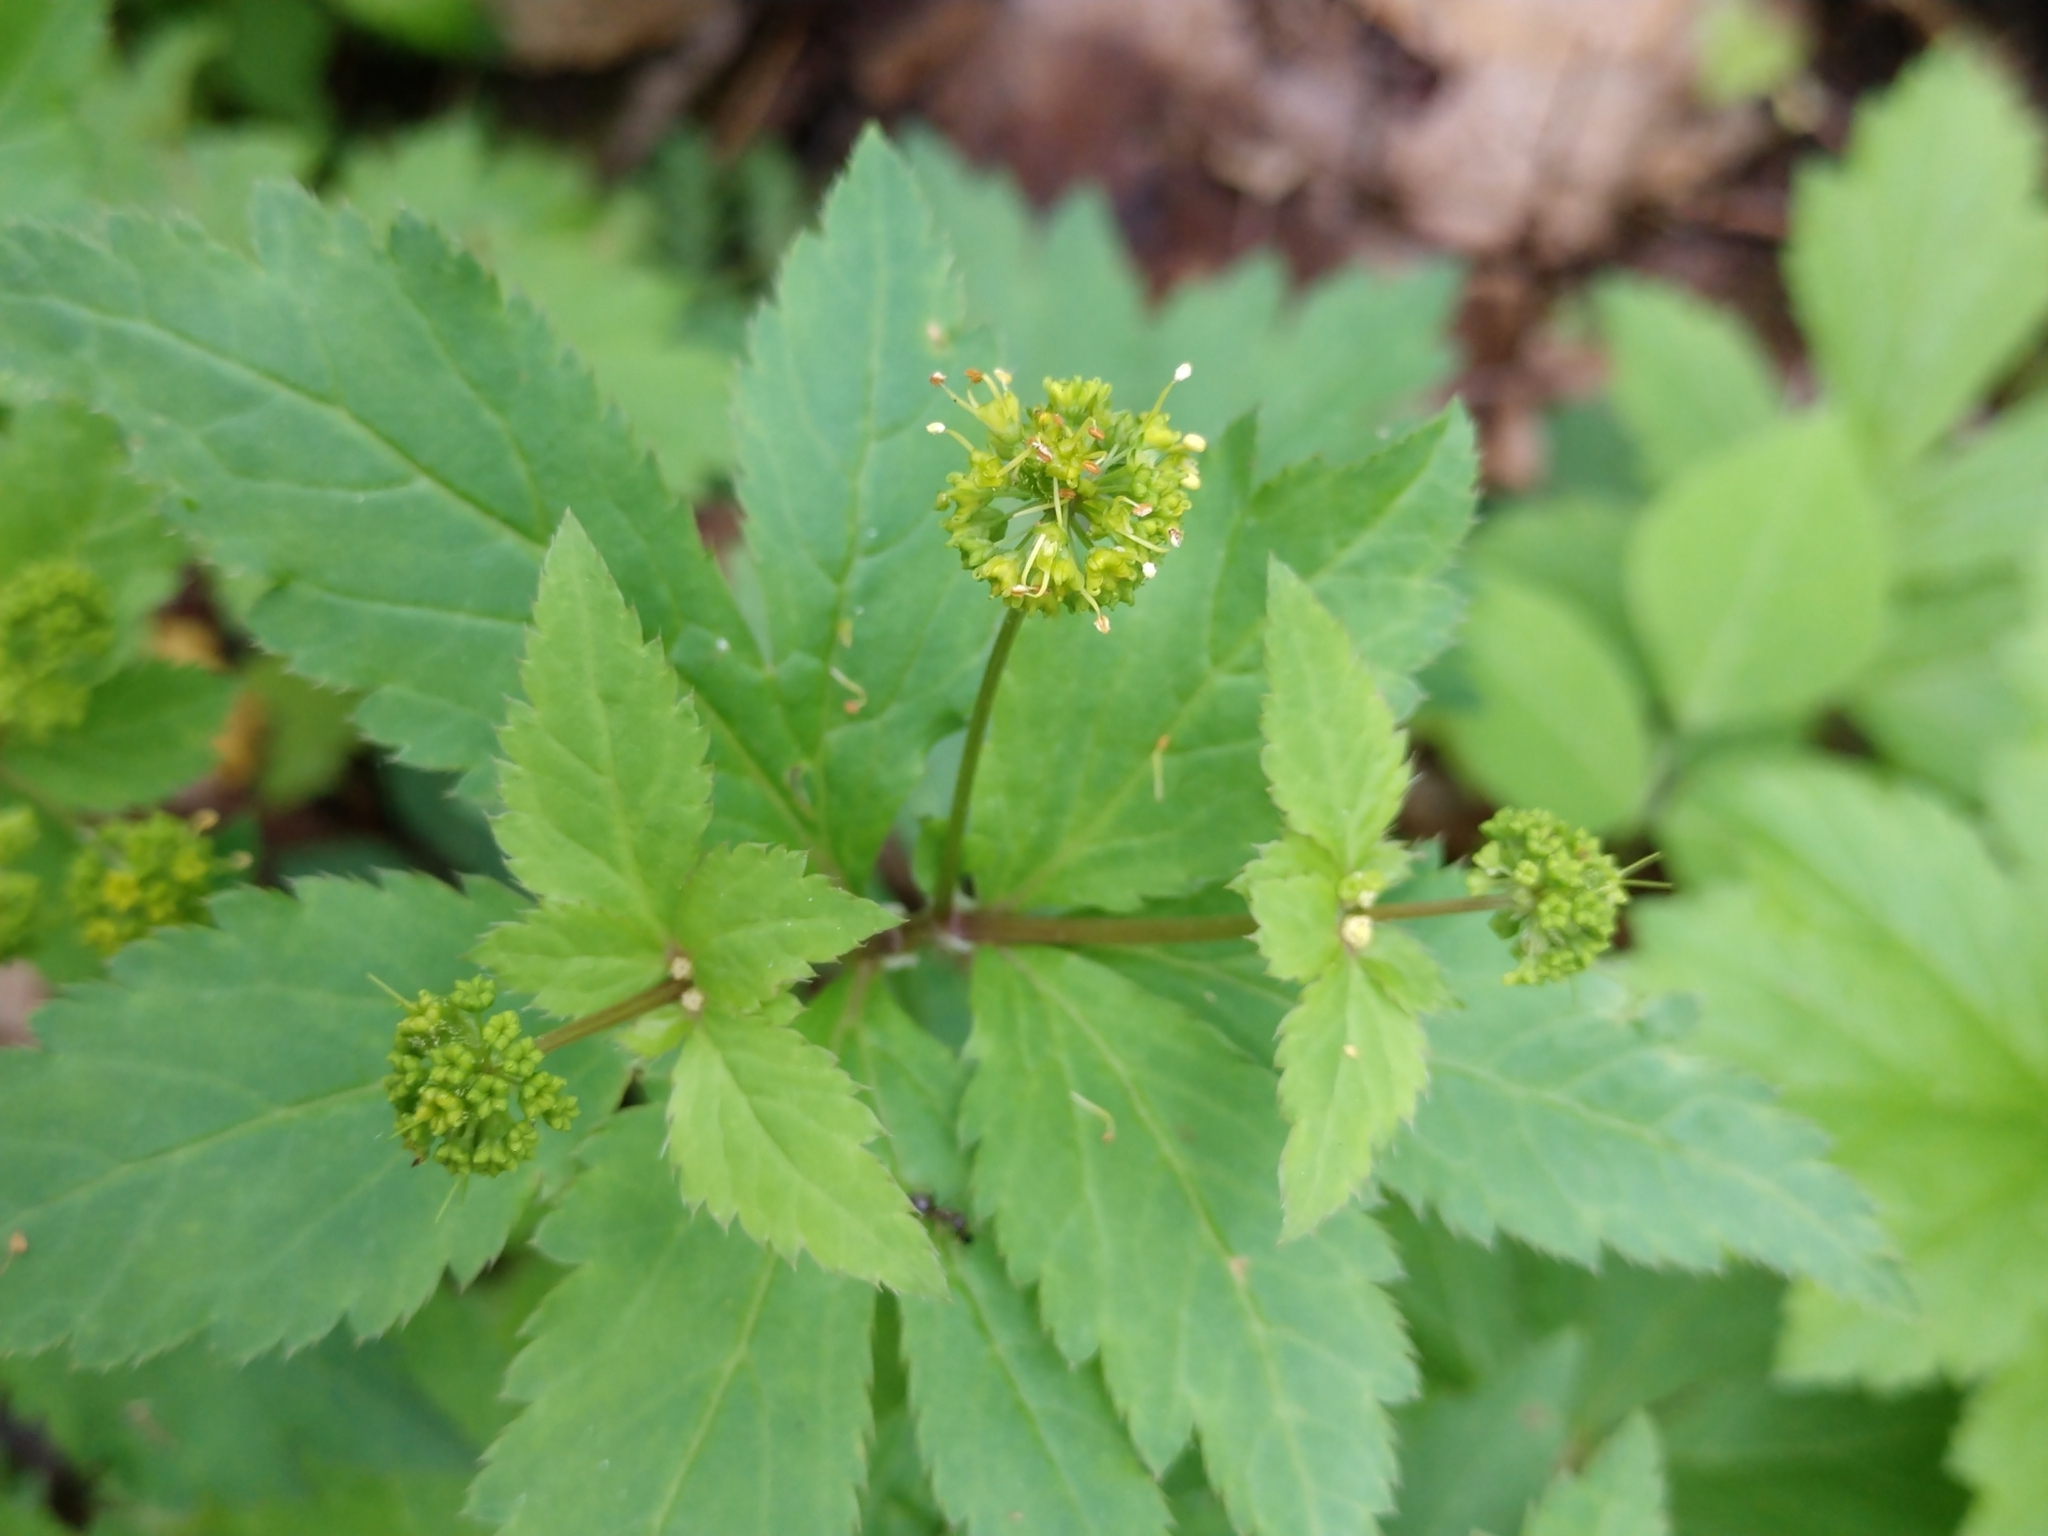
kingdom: Plantae
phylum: Tracheophyta
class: Magnoliopsida
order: Apiales
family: Apiaceae
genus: Sanicula
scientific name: Sanicula odorata
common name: Cluster sanicle
